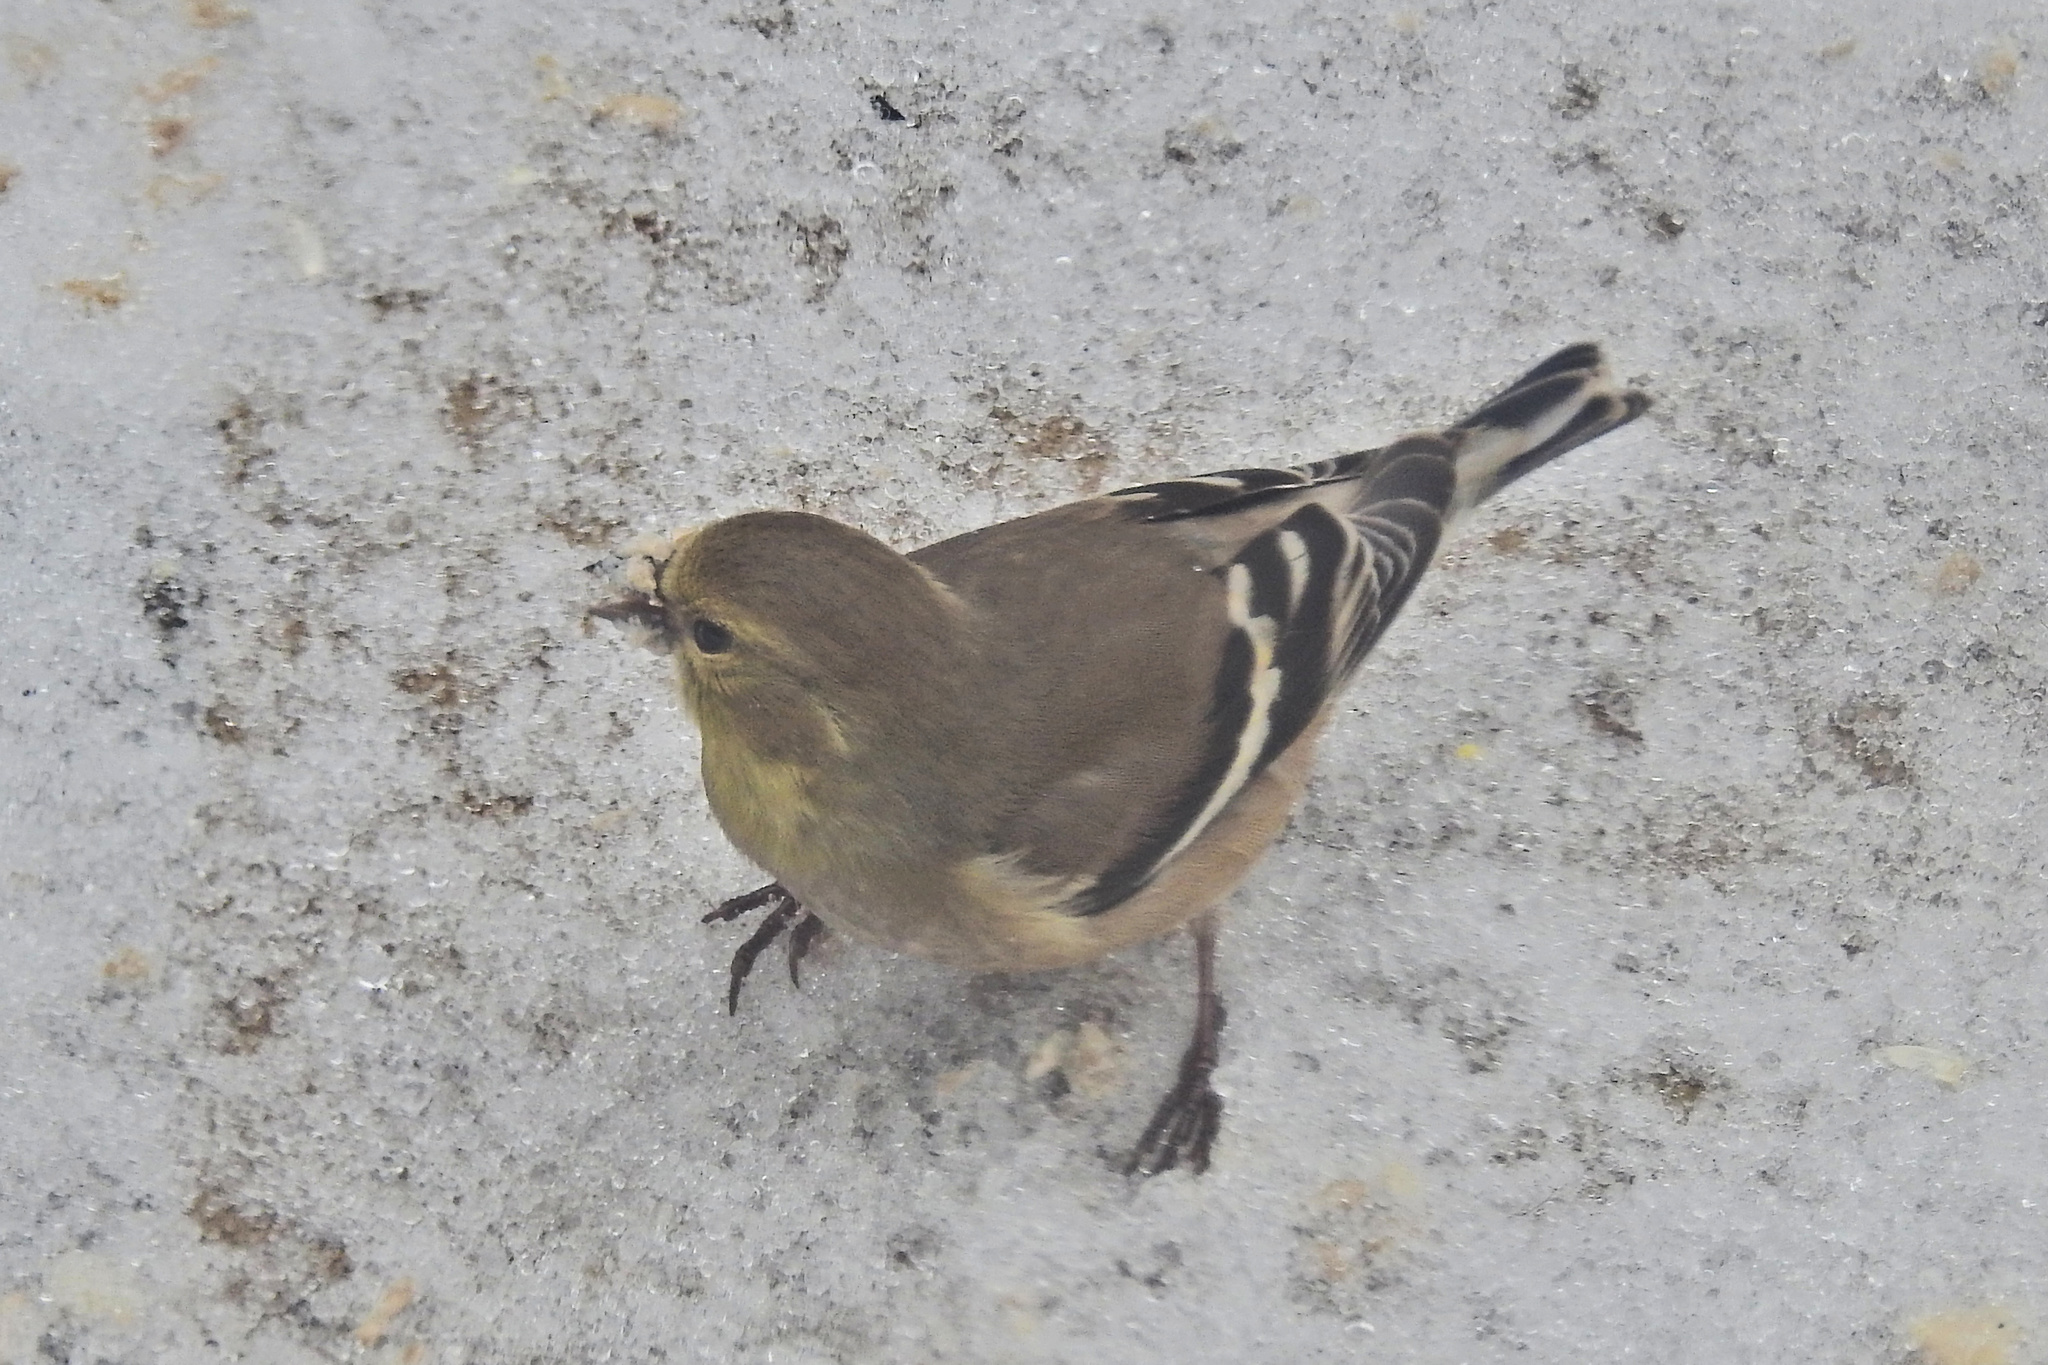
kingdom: Animalia
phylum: Chordata
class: Aves
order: Passeriformes
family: Fringillidae
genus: Spinus
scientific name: Spinus tristis
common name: American goldfinch
